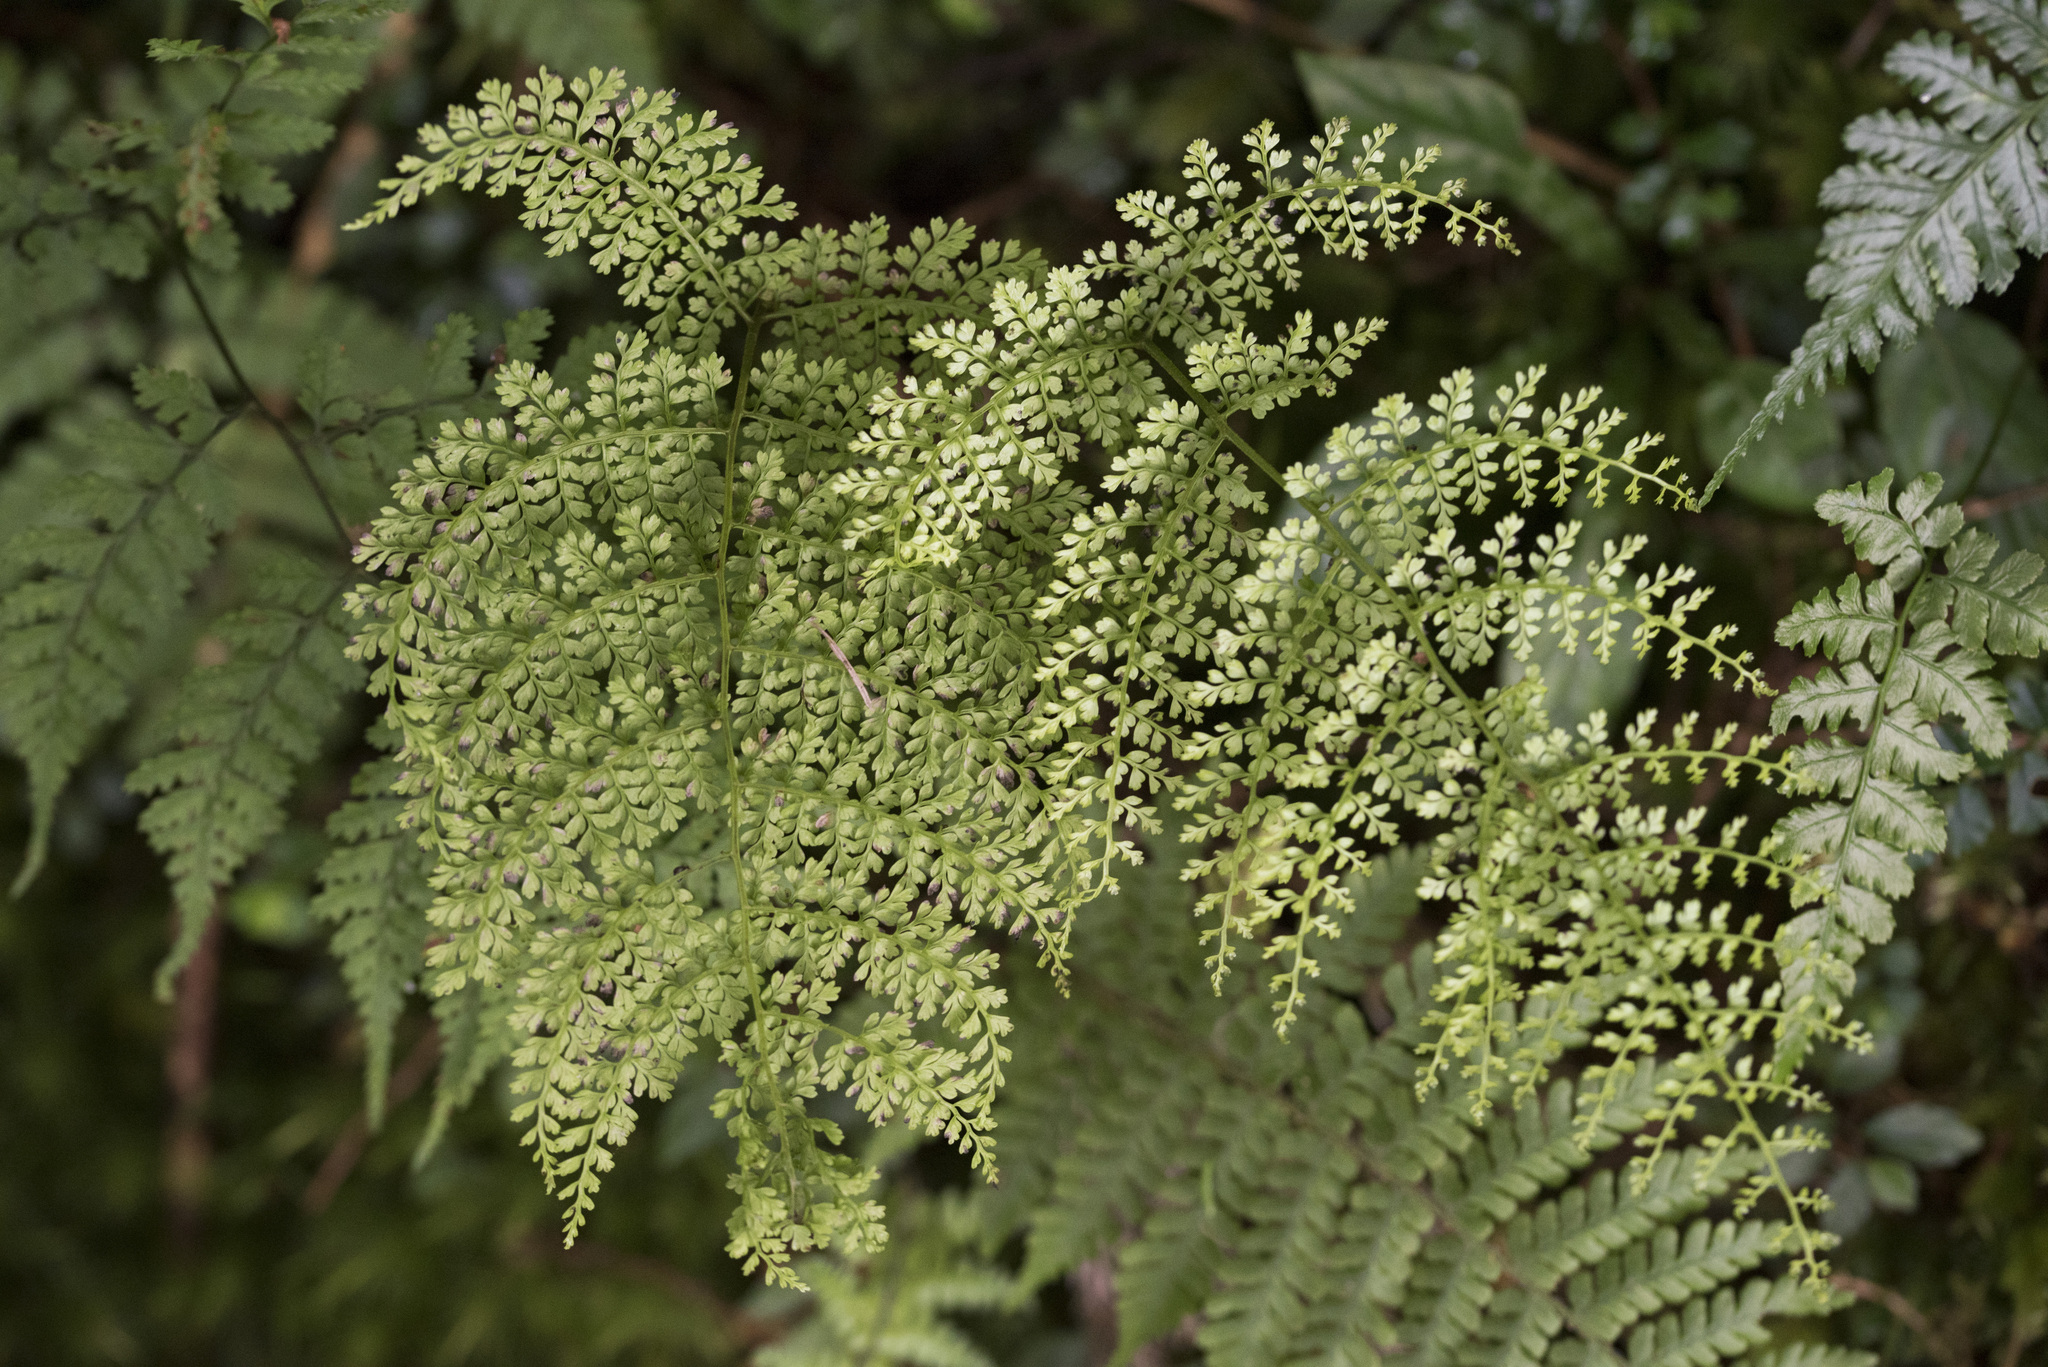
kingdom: Plantae
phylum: Tracheophyta
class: Polypodiopsida
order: Polypodiales
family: Dennstaedtiaceae
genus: Monachosorum
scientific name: Monachosorum henryi
